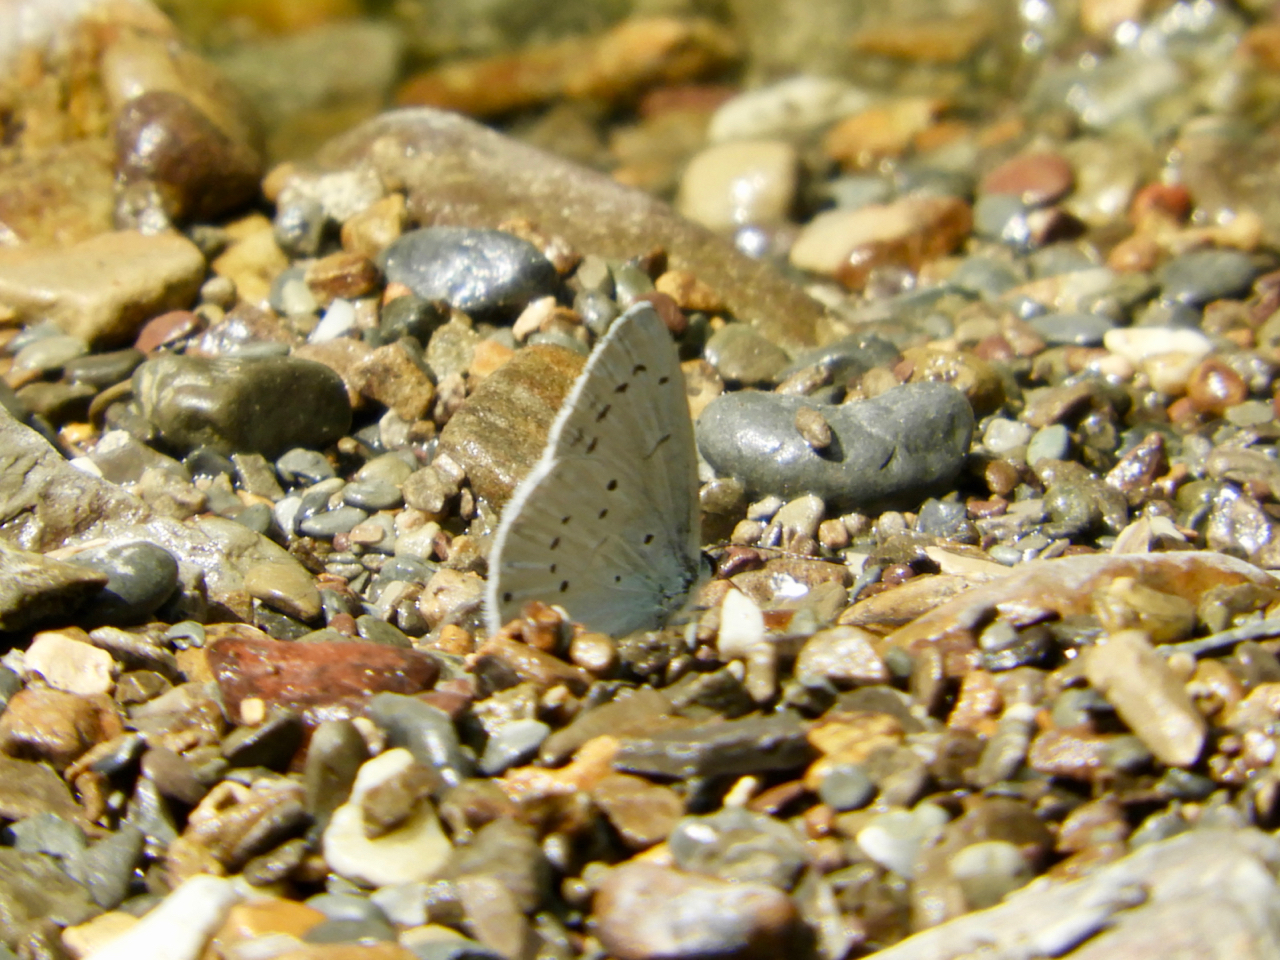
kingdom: Animalia
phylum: Arthropoda
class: Insecta
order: Lepidoptera
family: Lycaenidae
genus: Celastrina
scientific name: Celastrina argiolus
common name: Holly blue
